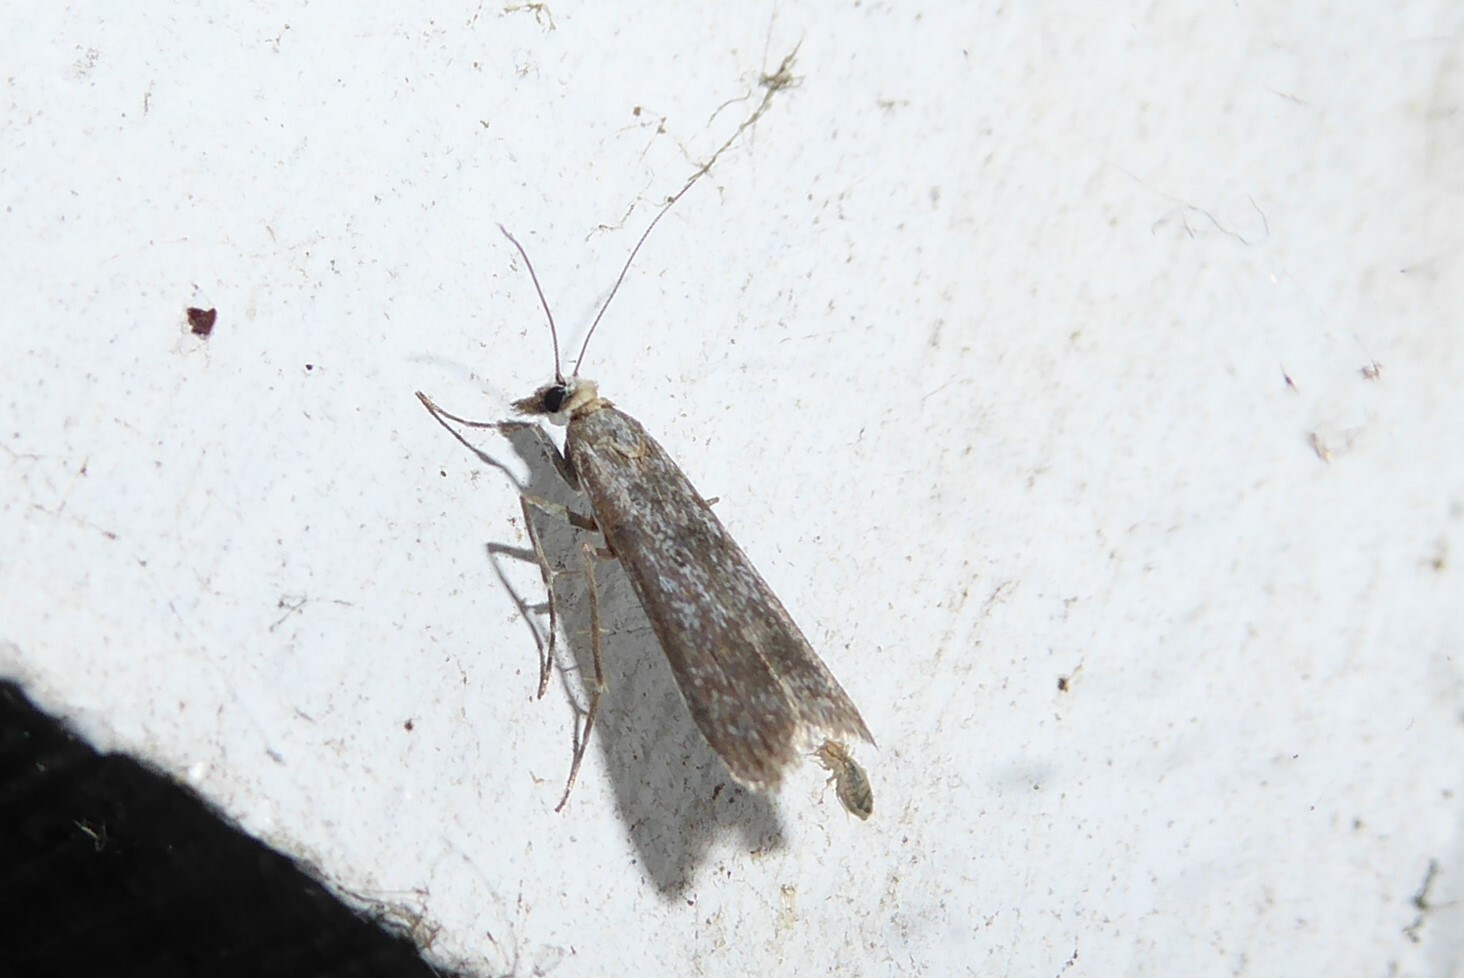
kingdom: Animalia
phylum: Arthropoda
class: Insecta
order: Lepidoptera
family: Crambidae
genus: Eudonia
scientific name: Eudonia leptalea
